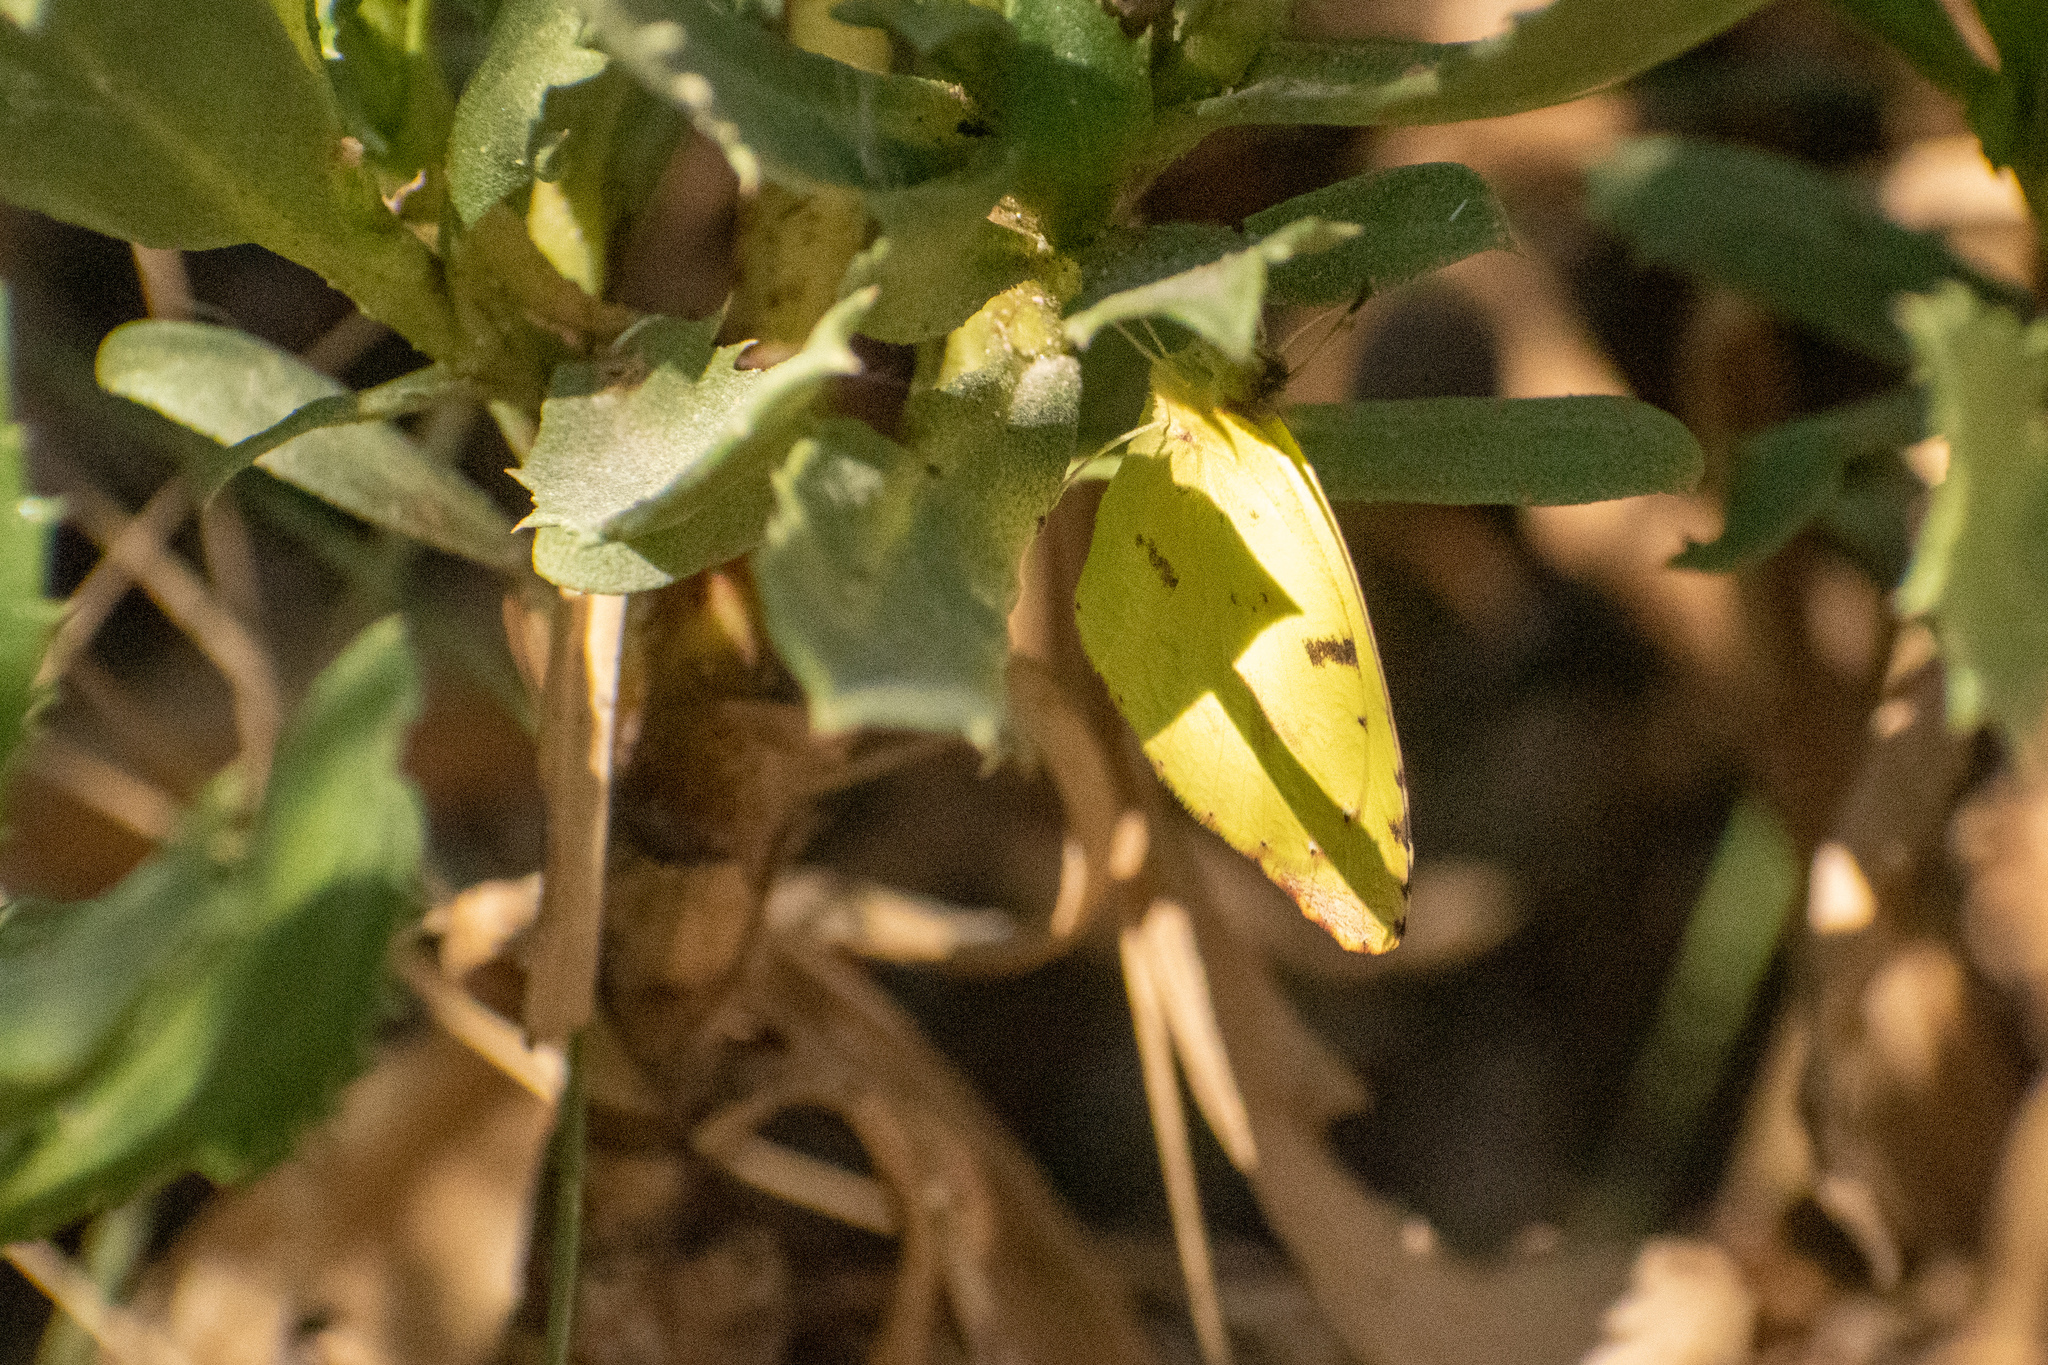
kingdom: Animalia
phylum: Arthropoda
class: Insecta
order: Lepidoptera
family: Pieridae
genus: Teriocolias
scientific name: Teriocolias
